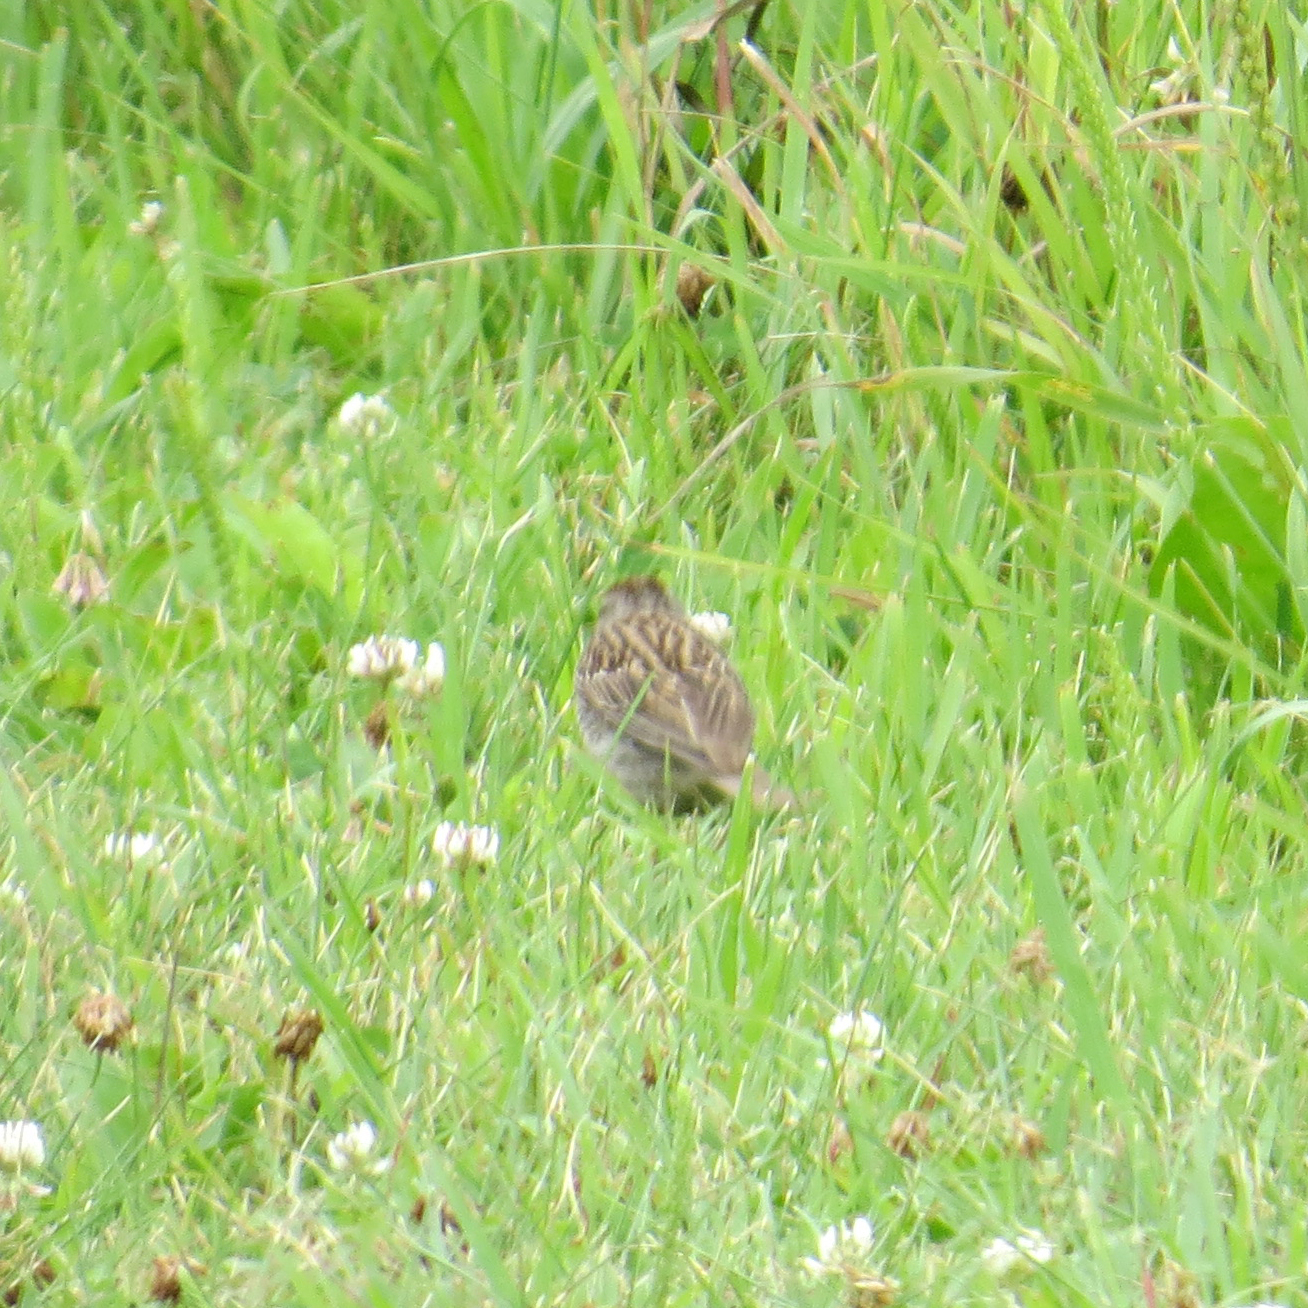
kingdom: Animalia
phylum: Chordata
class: Aves
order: Passeriformes
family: Passerellidae
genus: Spizella
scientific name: Spizella passerina
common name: Chipping sparrow
